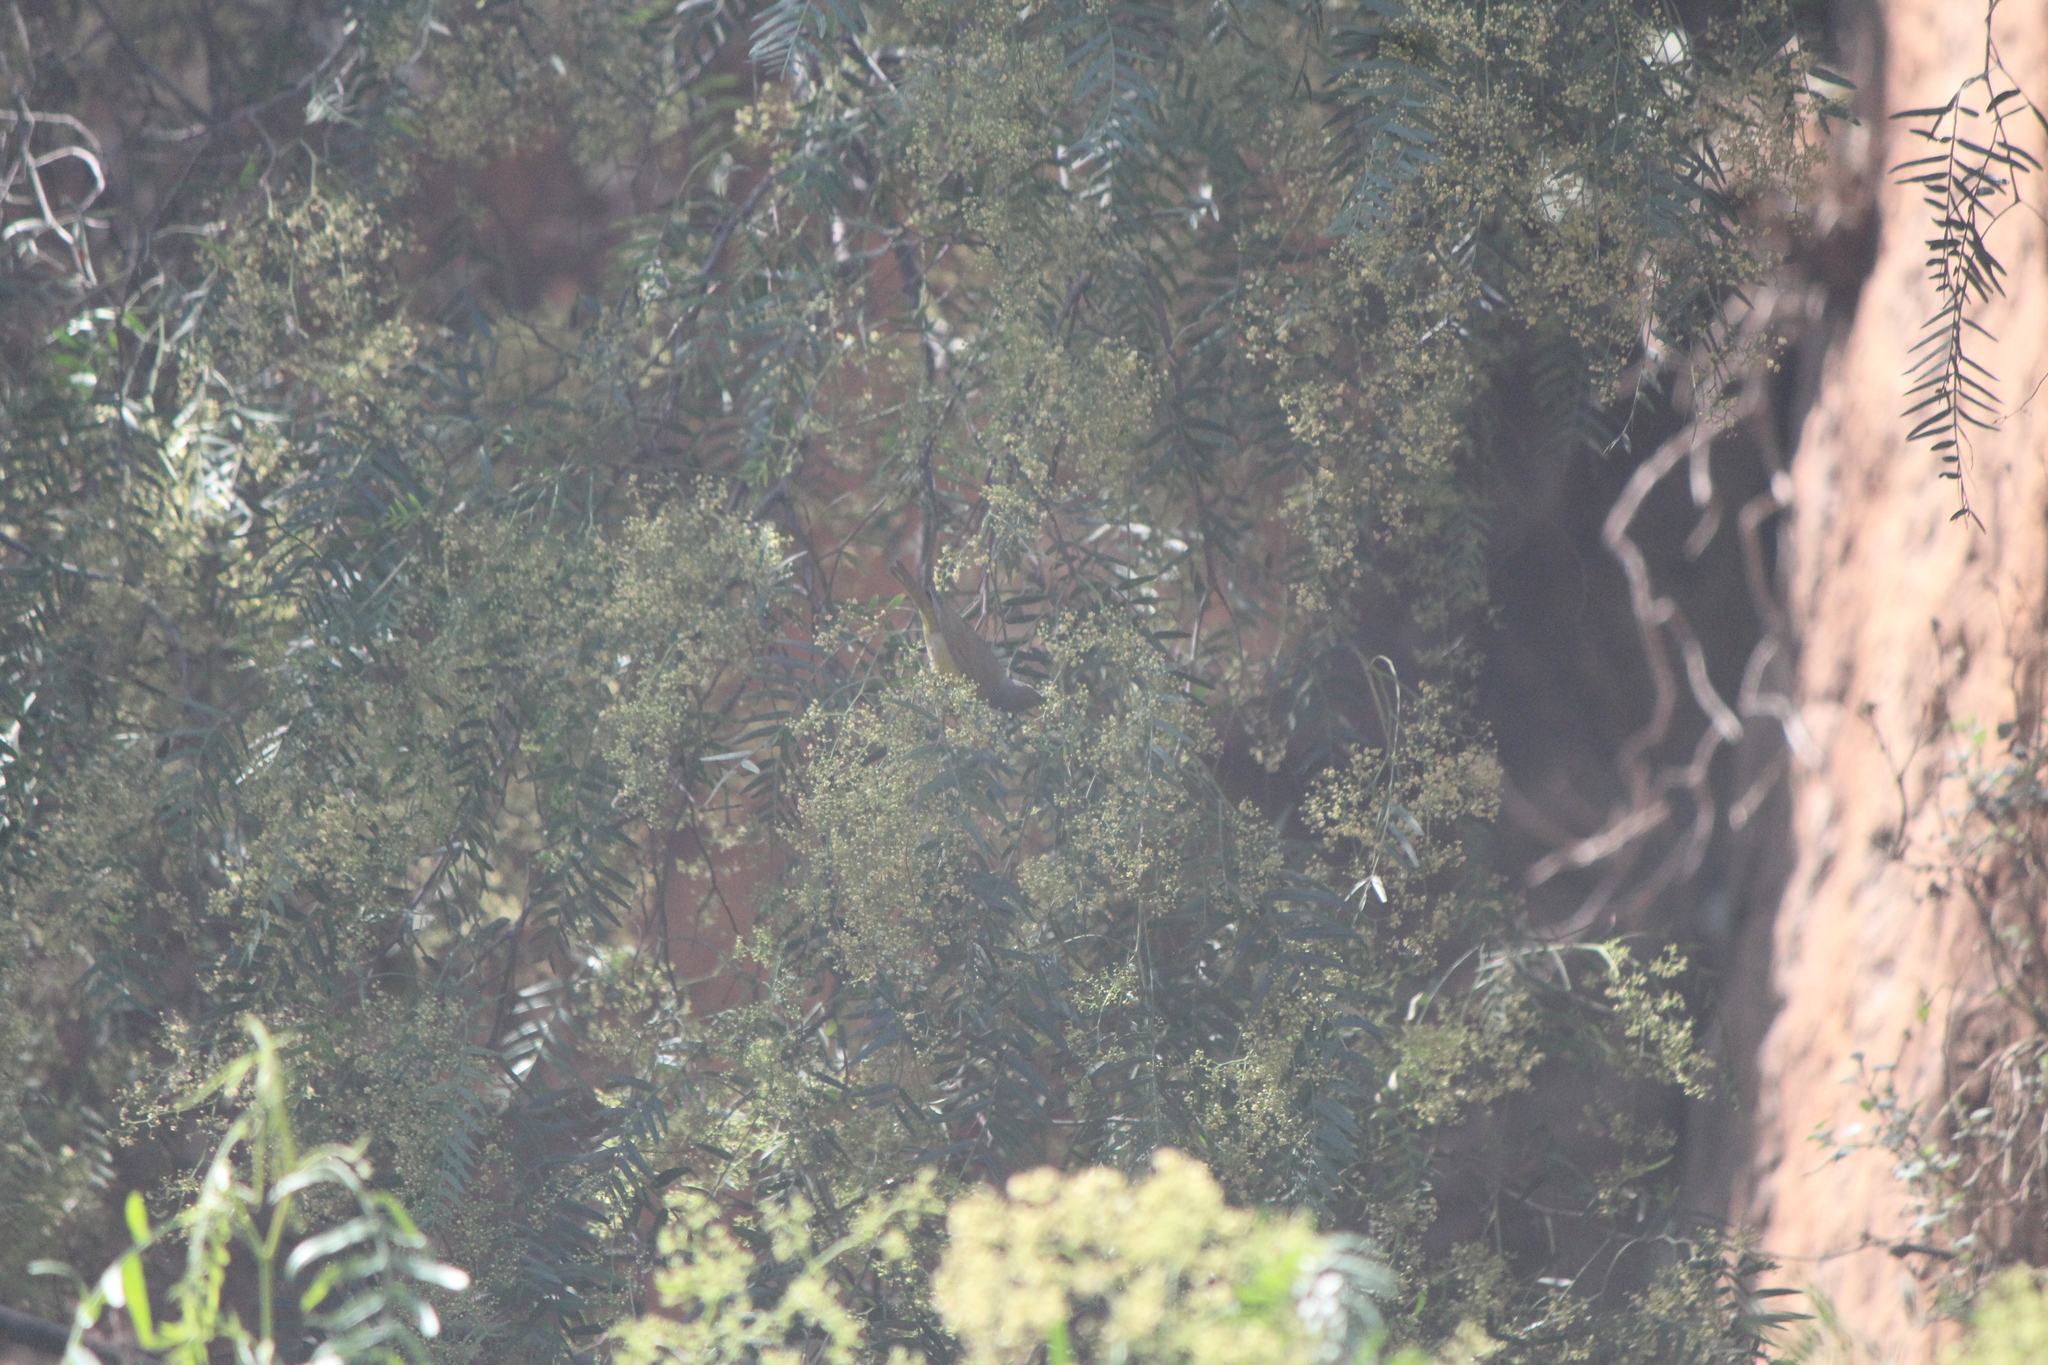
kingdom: Animalia
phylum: Chordata
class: Aves
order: Passeriformes
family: Parulidae
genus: Leiothlypis
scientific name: Leiothlypis ruficapilla
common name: Nashville warbler
